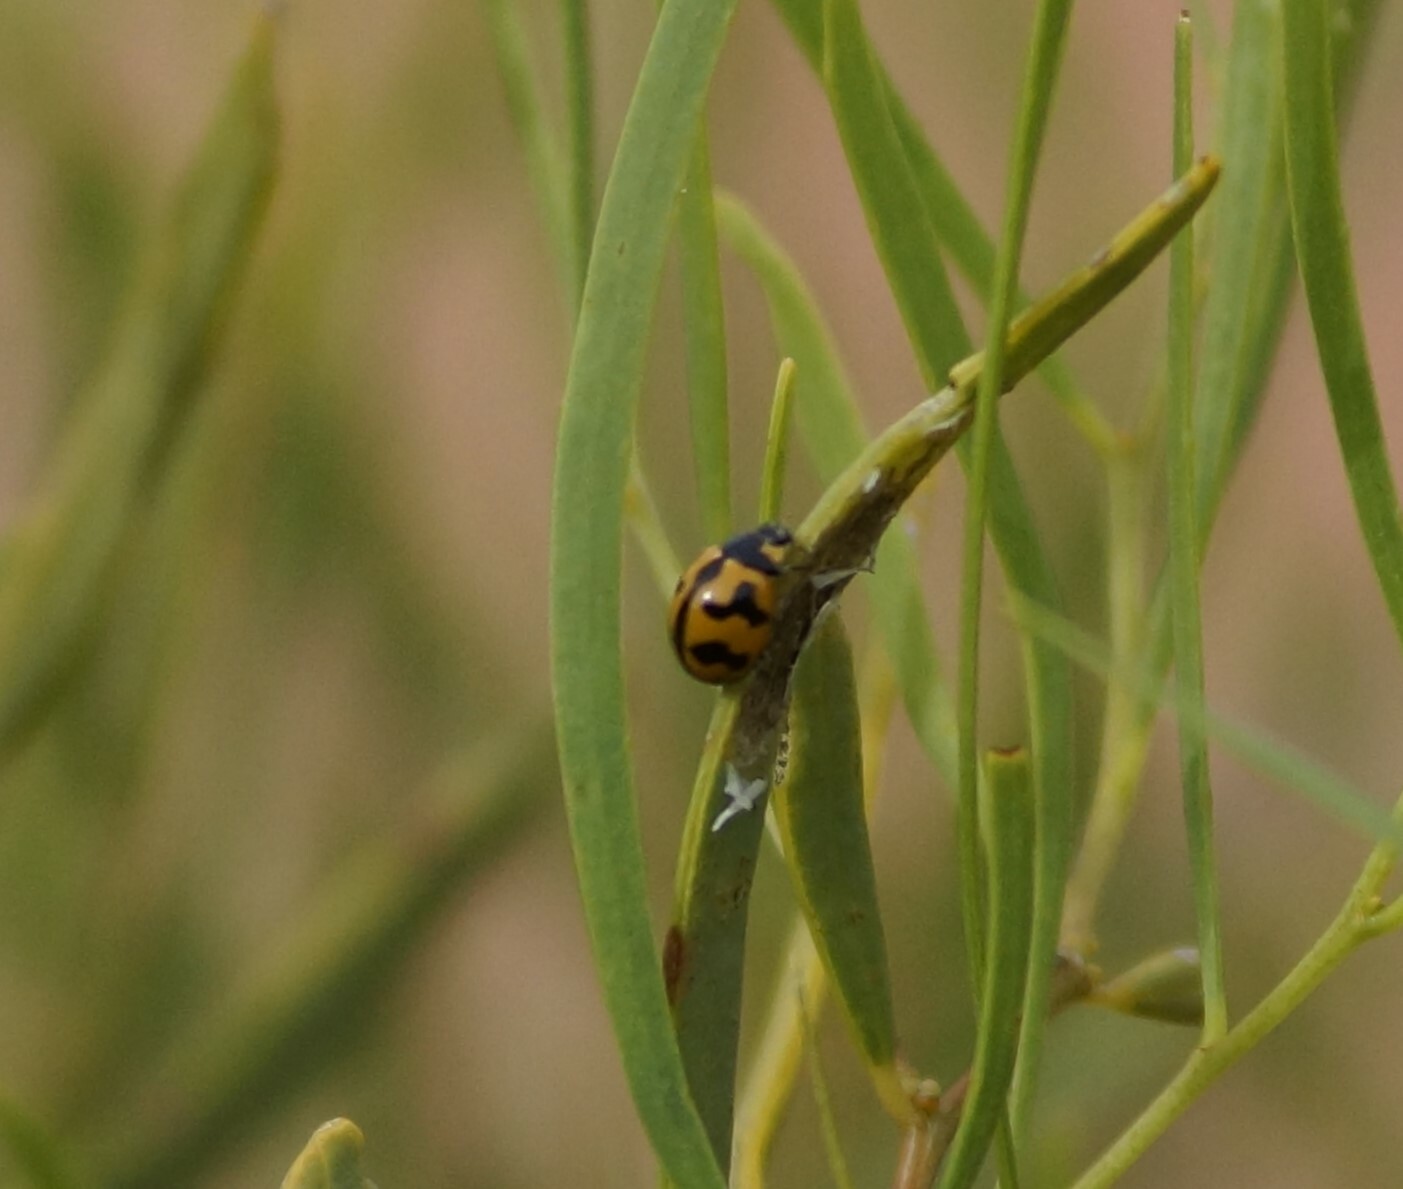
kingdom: Animalia
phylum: Arthropoda
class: Insecta
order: Coleoptera
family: Coccinellidae
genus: Coccinella
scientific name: Coccinella transversalis
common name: Transverse lady beetle
